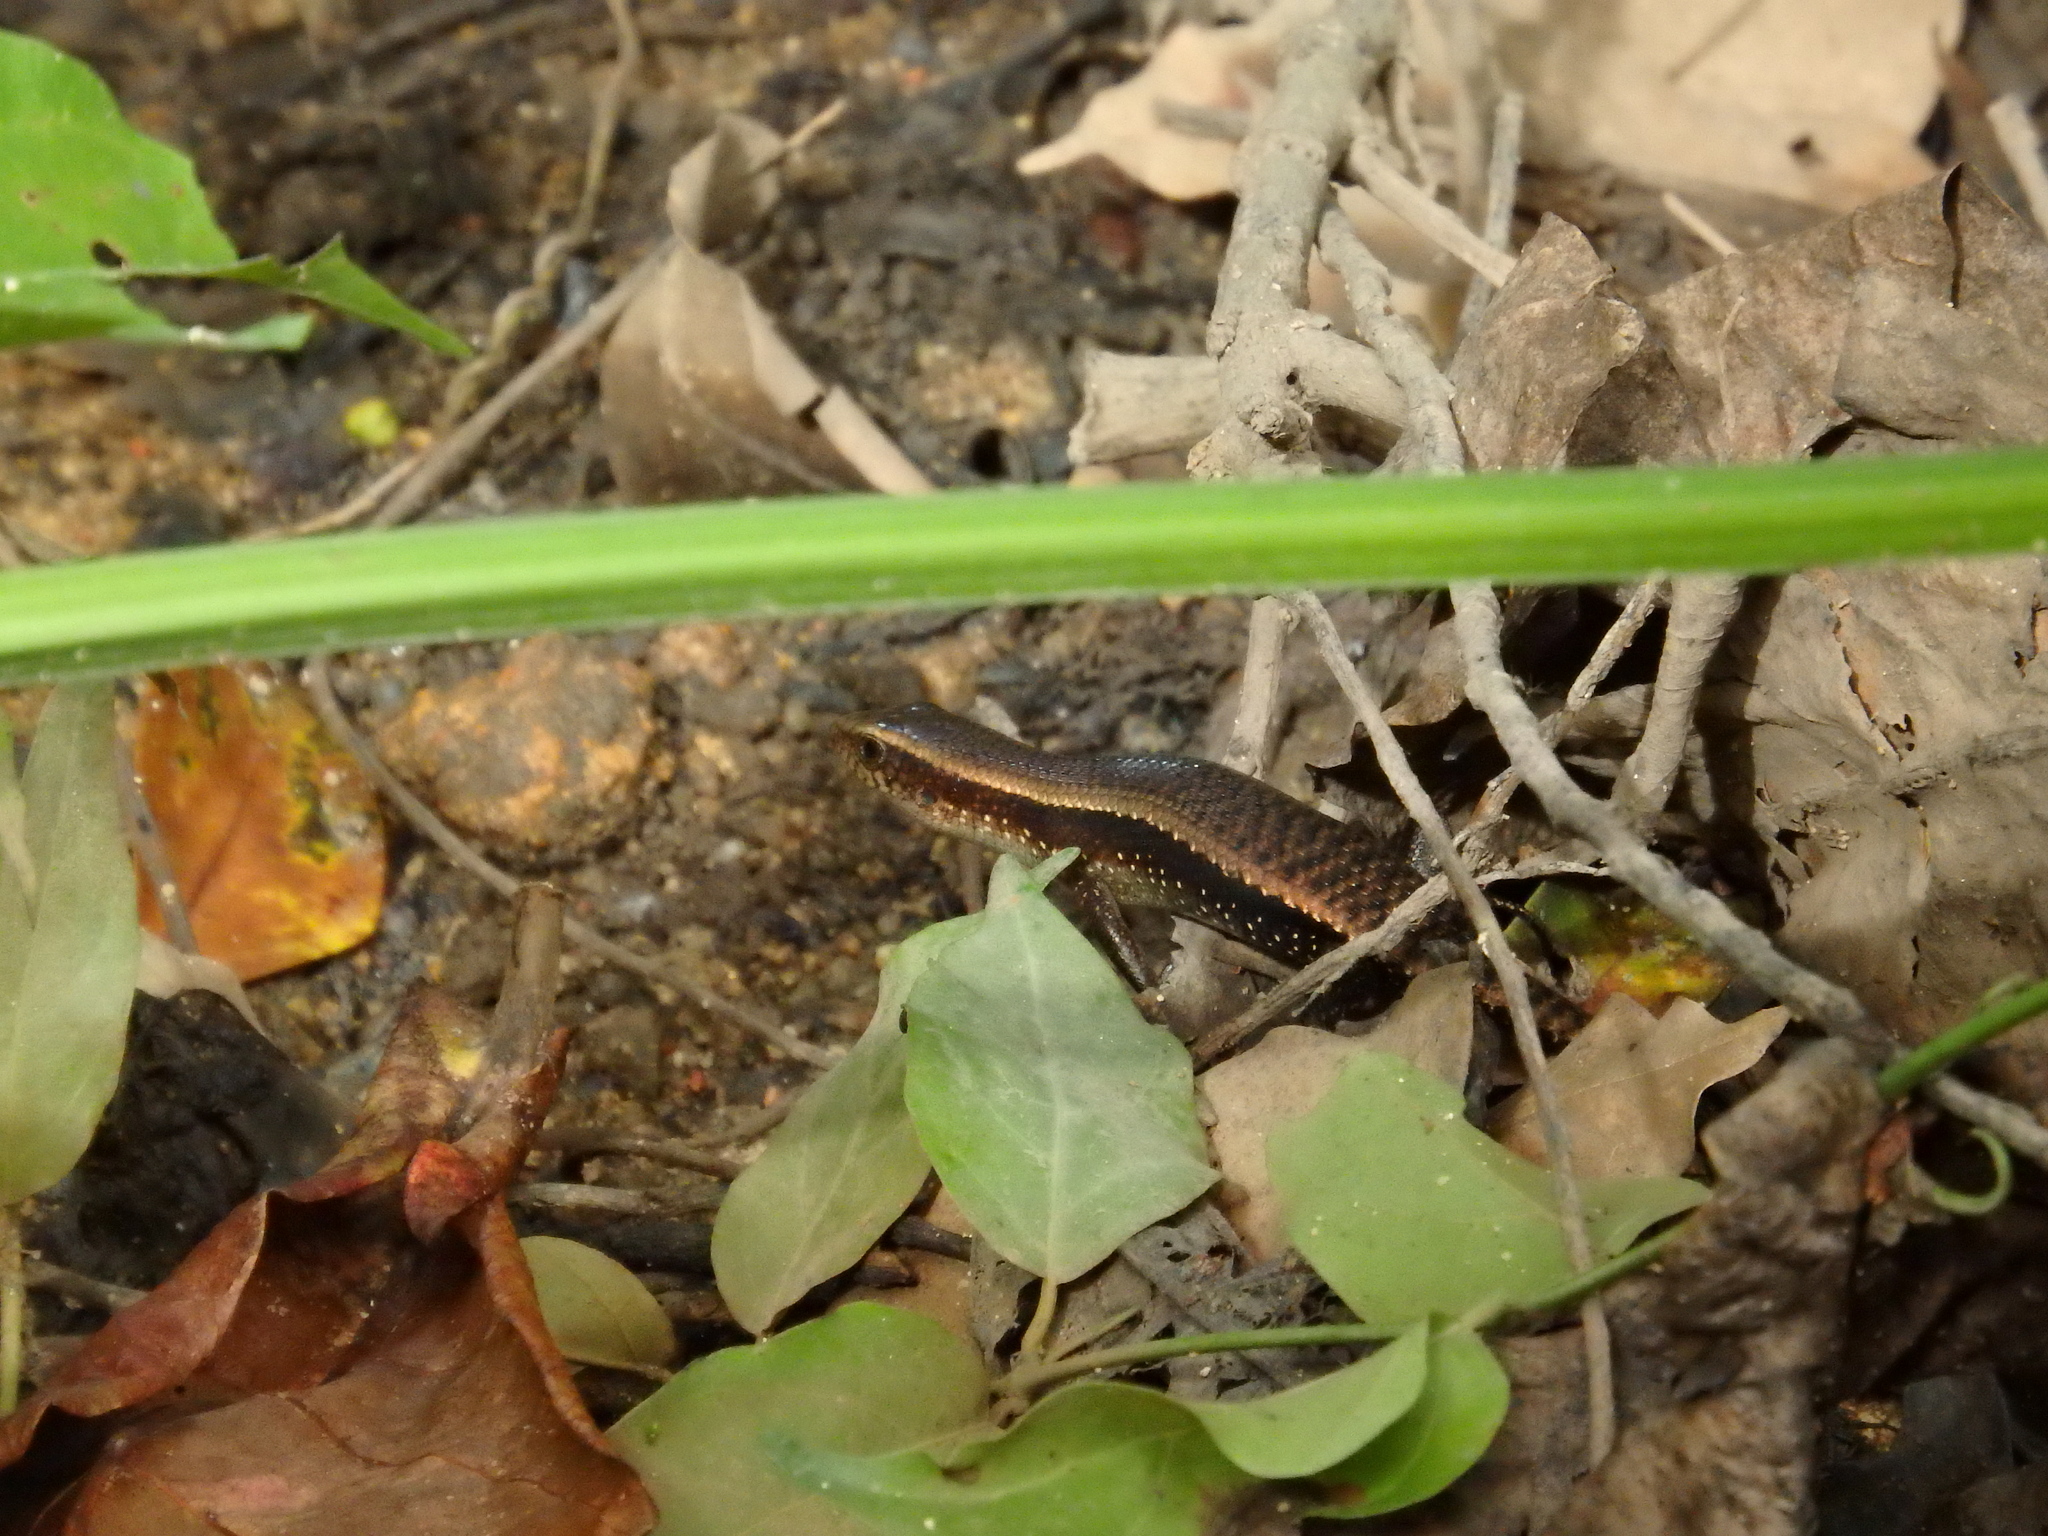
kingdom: Animalia
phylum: Chordata
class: Squamata
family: Scincidae
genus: Eutropis
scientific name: Eutropis multifasciata
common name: Common mabuya
